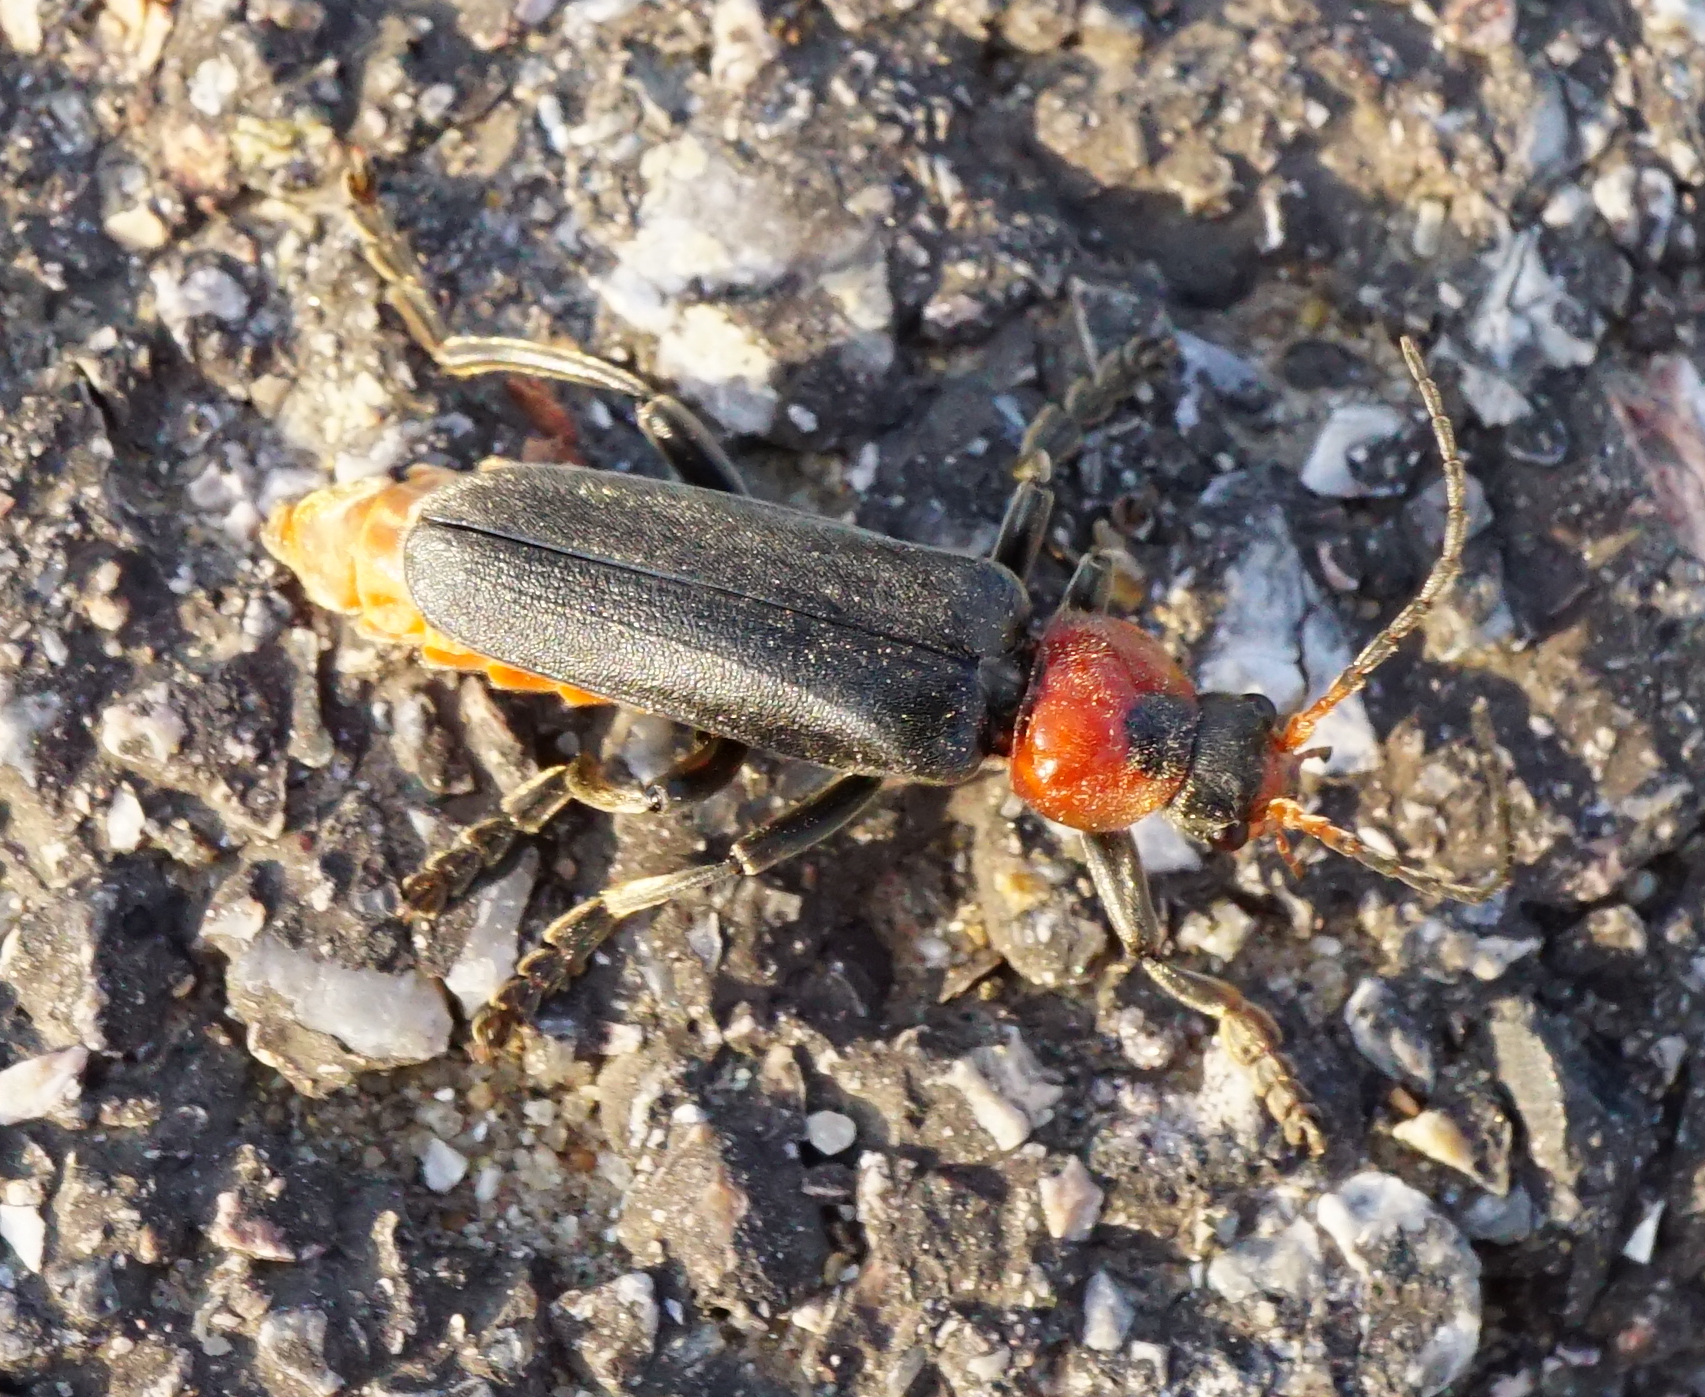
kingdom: Animalia
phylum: Arthropoda
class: Insecta
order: Coleoptera
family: Cantharidae
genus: Cantharis
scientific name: Cantharis fusca
